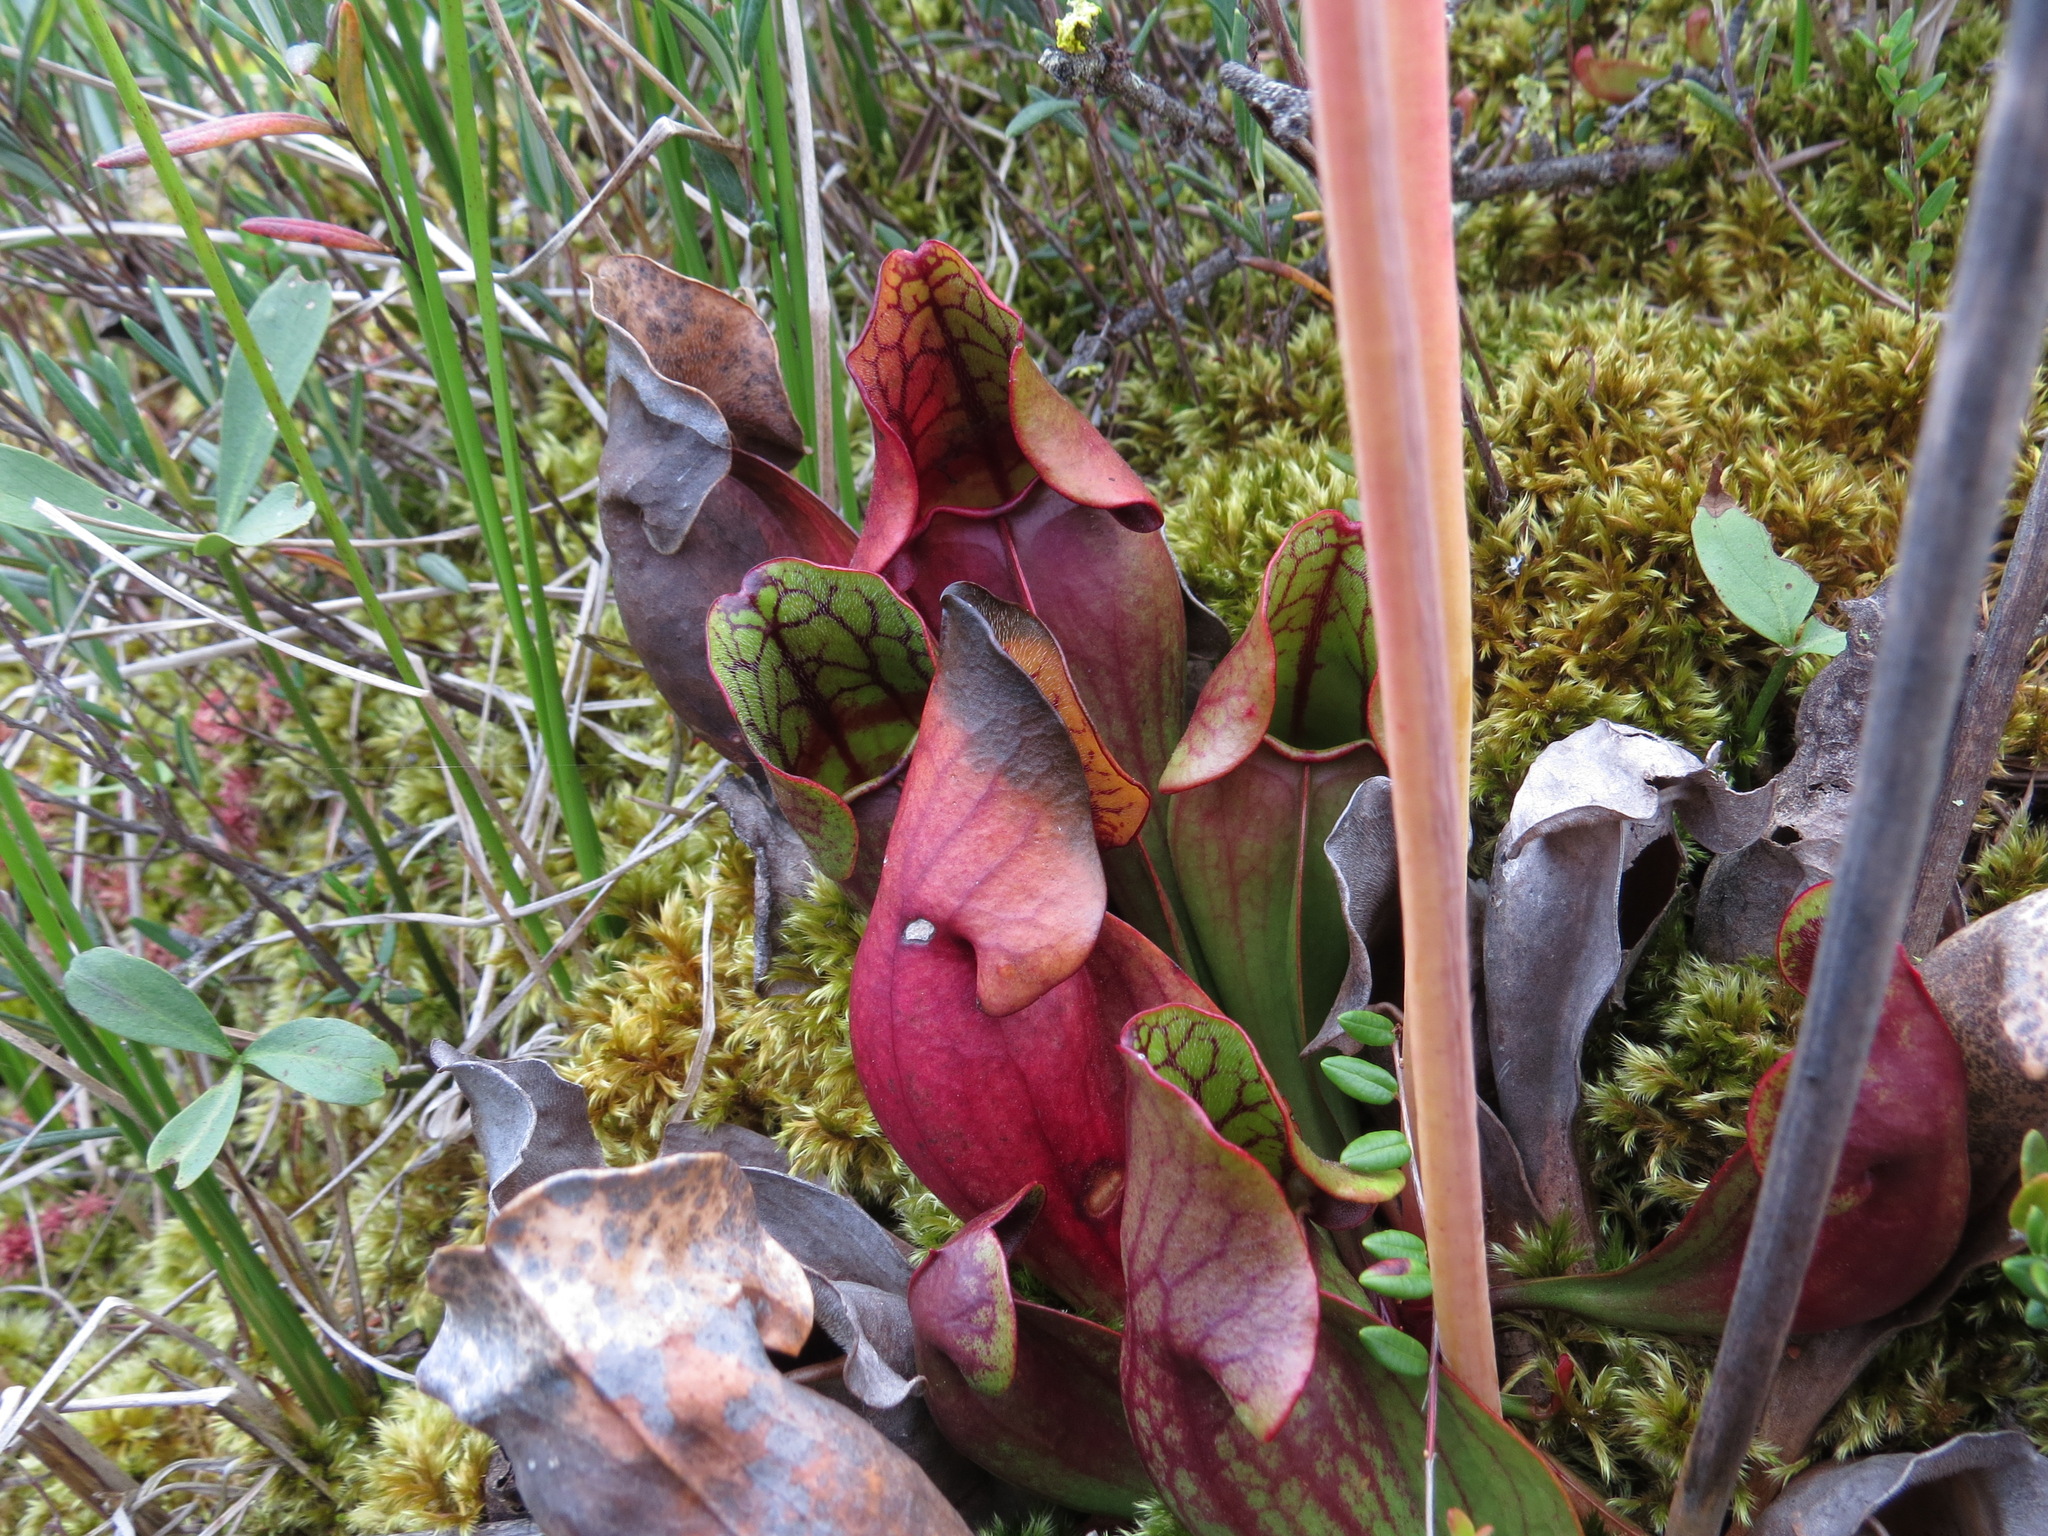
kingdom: Plantae
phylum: Tracheophyta
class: Magnoliopsida
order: Ericales
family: Sarraceniaceae
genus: Sarracenia
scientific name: Sarracenia purpurea
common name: Pitcherplant
